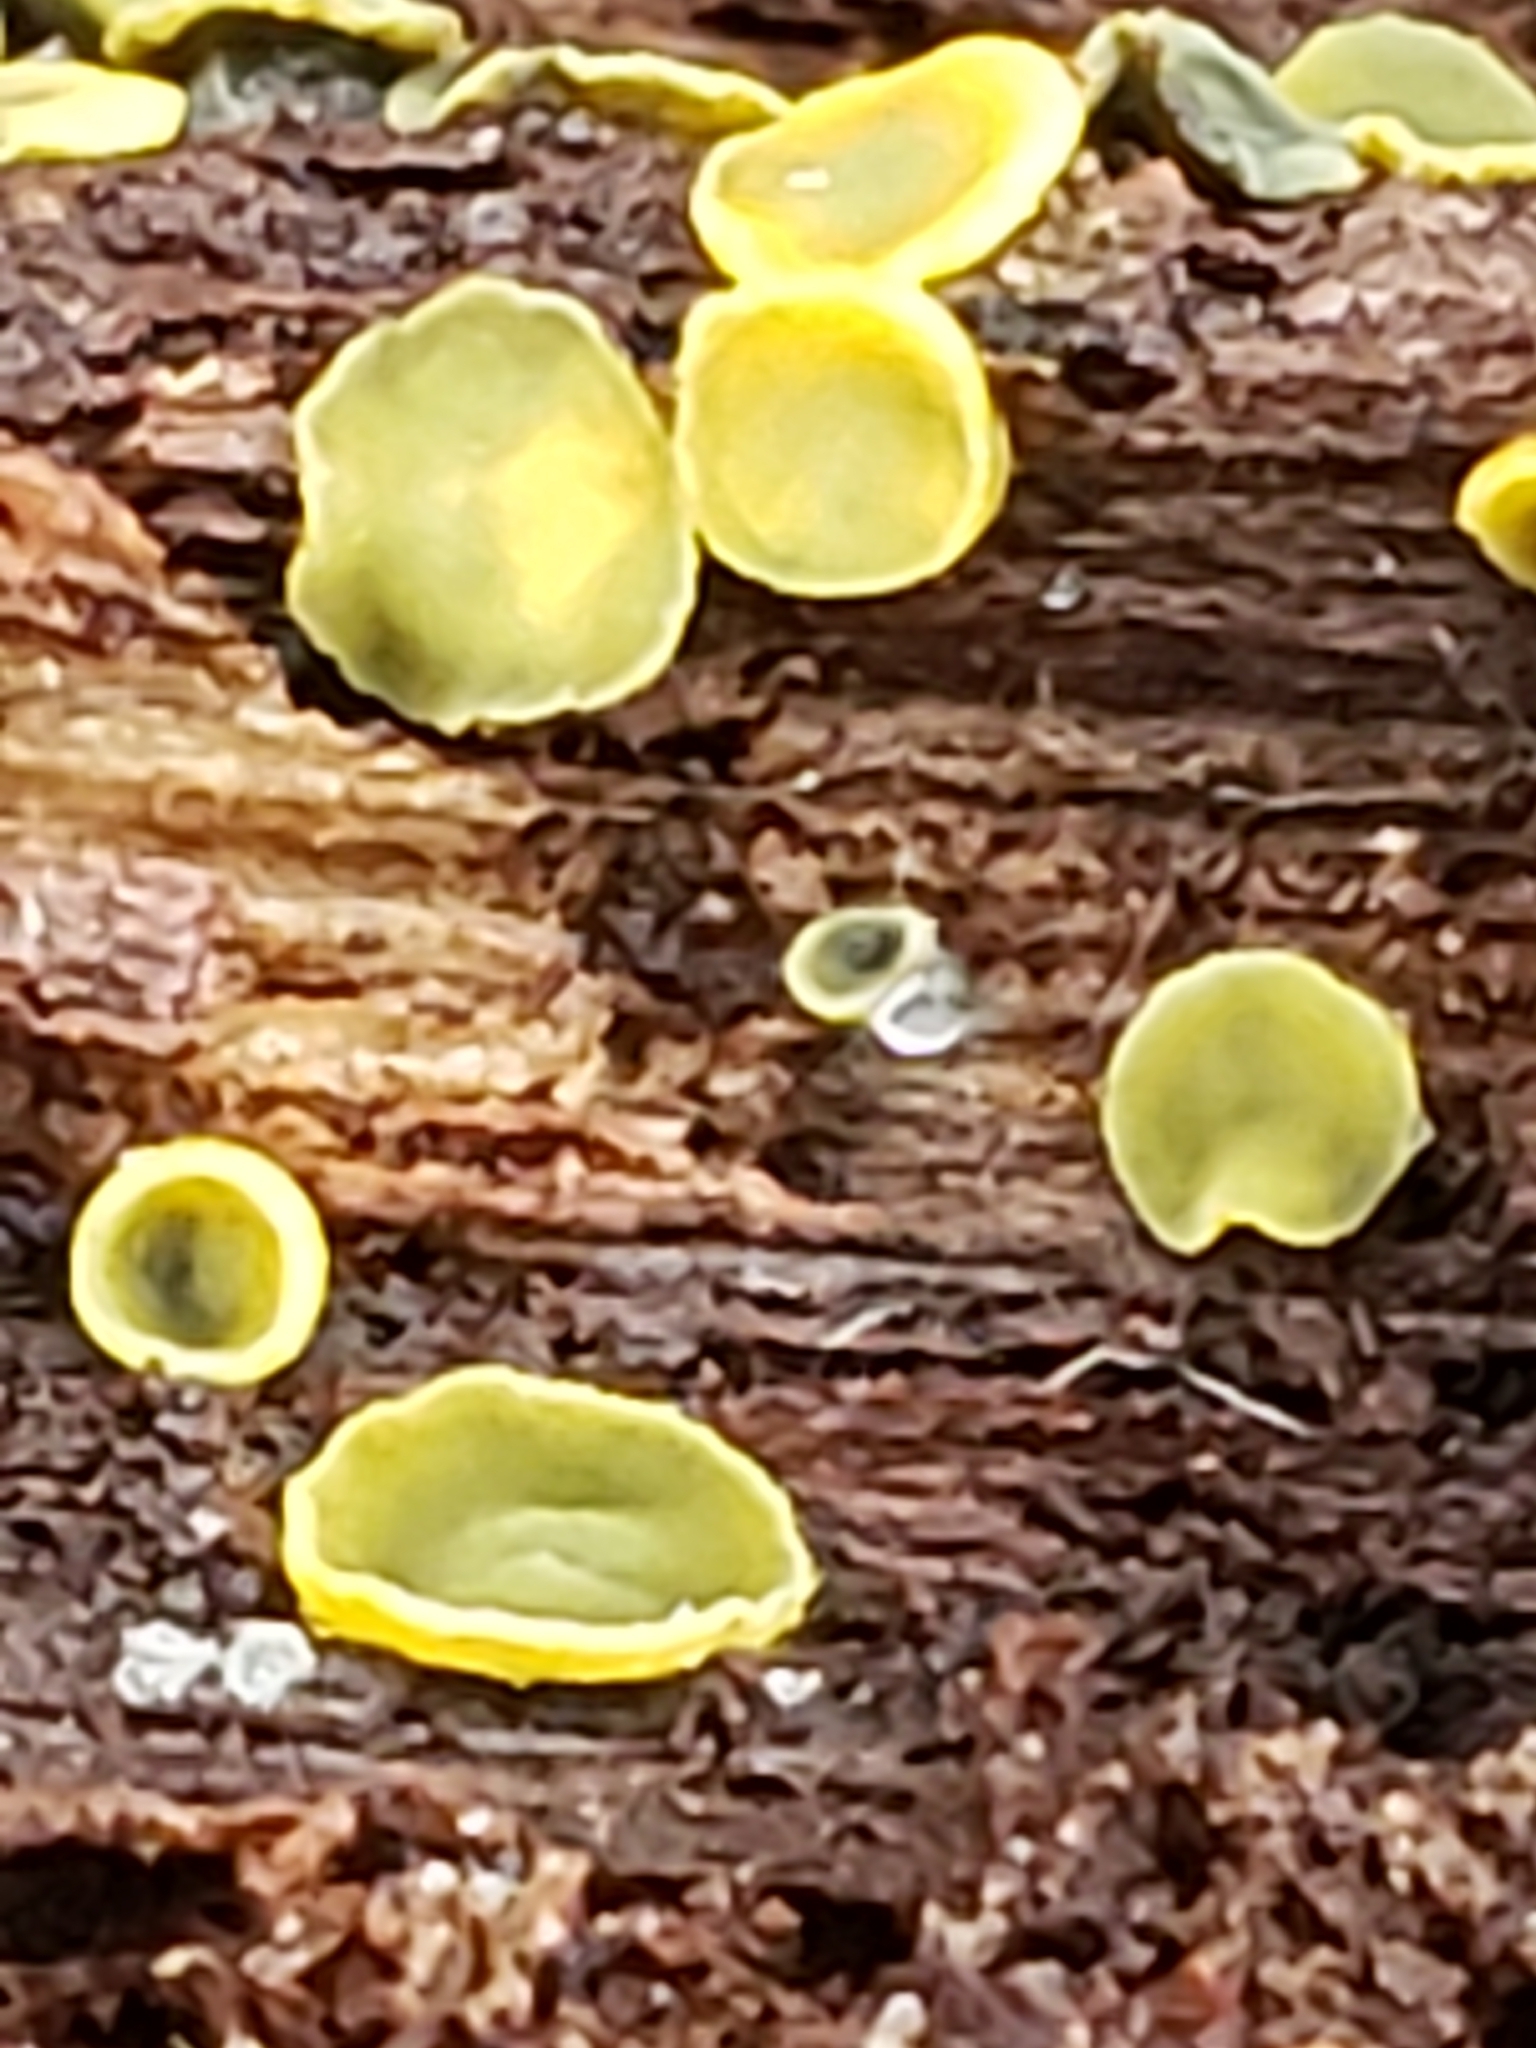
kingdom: Fungi
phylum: Ascomycota
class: Leotiomycetes
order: Helotiales
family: Chlorospleniaceae
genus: Chlorosplenium
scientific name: Chlorosplenium chlora
